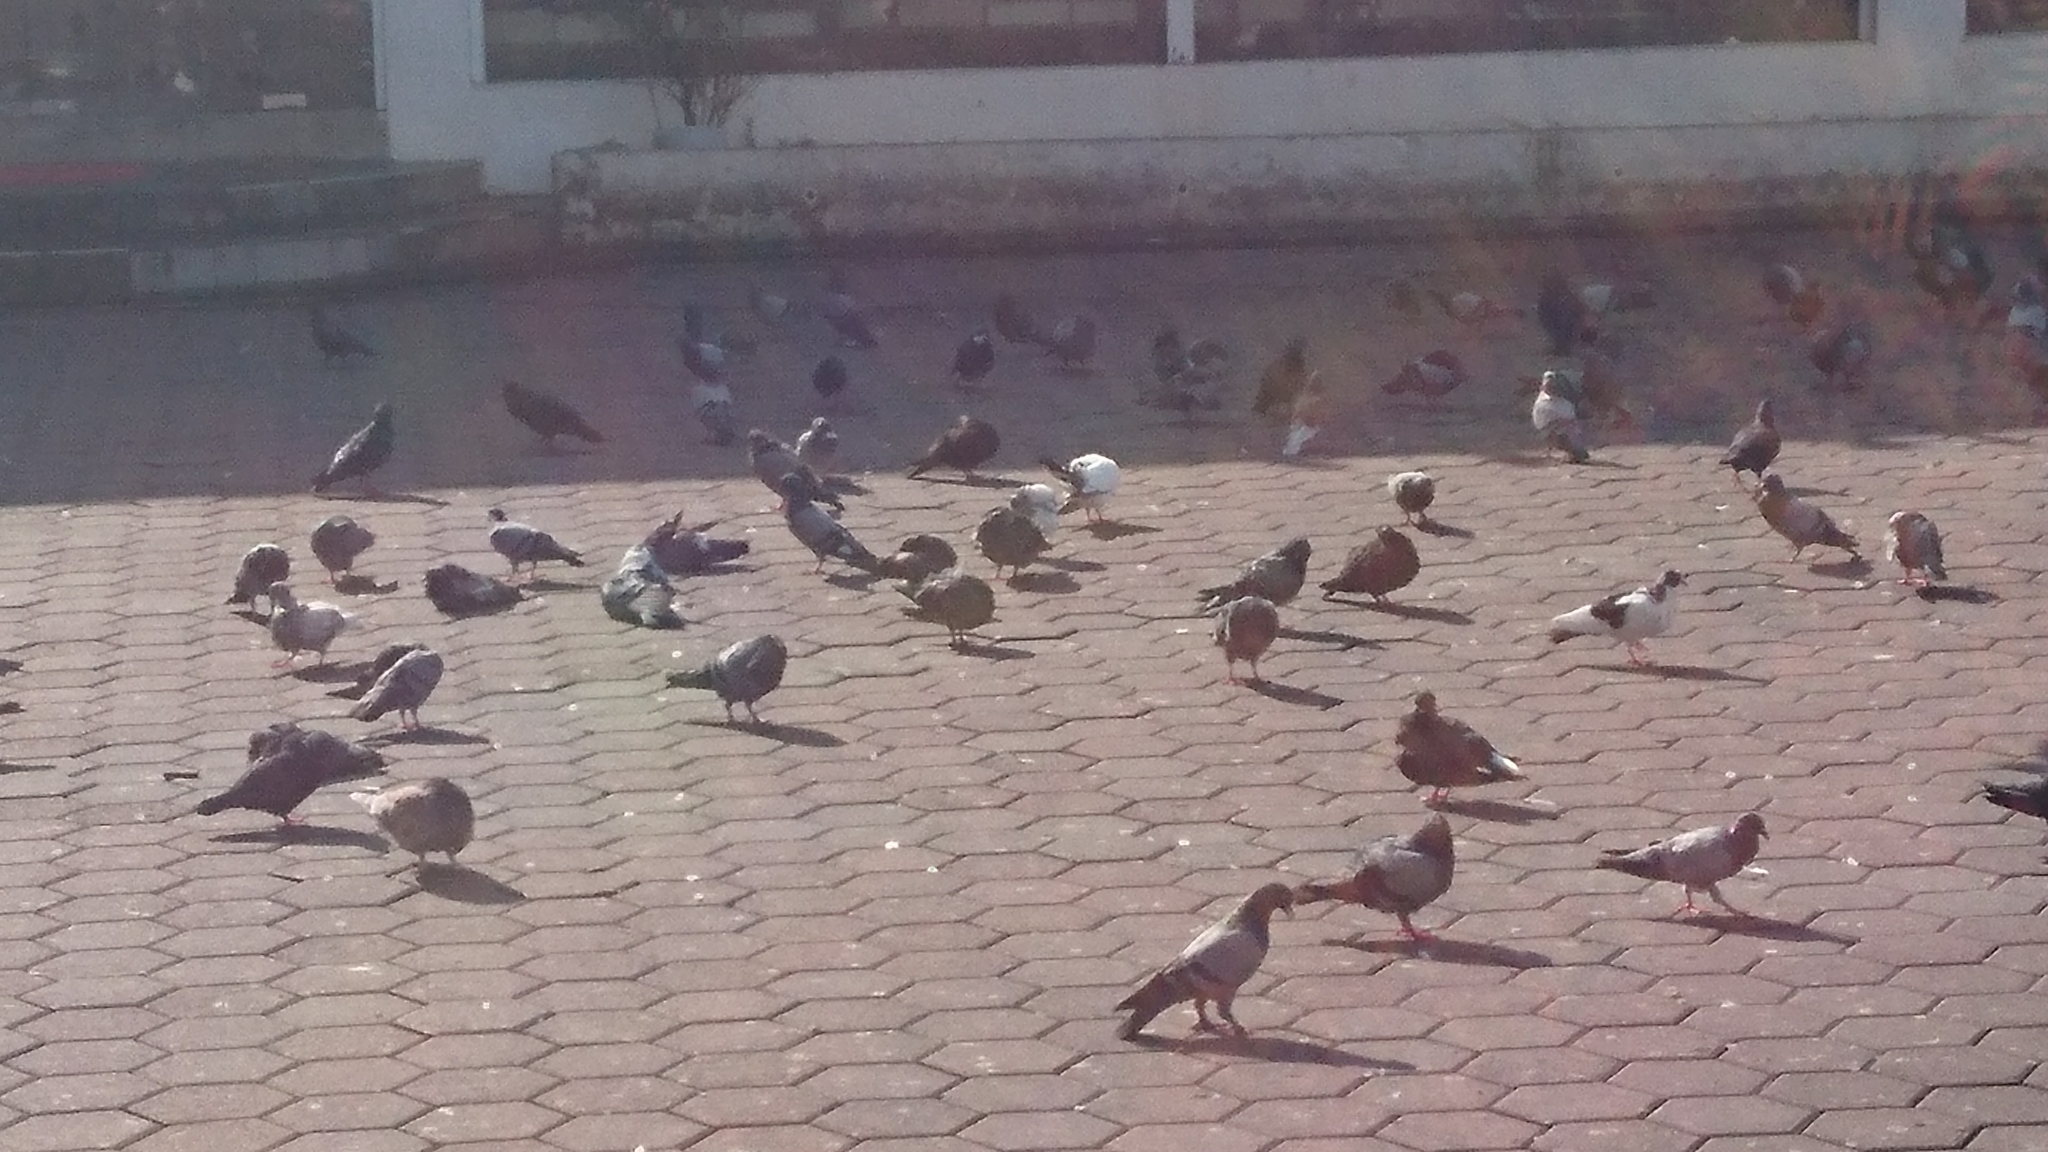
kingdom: Animalia
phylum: Chordata
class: Aves
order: Columbiformes
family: Columbidae
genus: Columba
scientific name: Columba livia
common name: Rock pigeon
